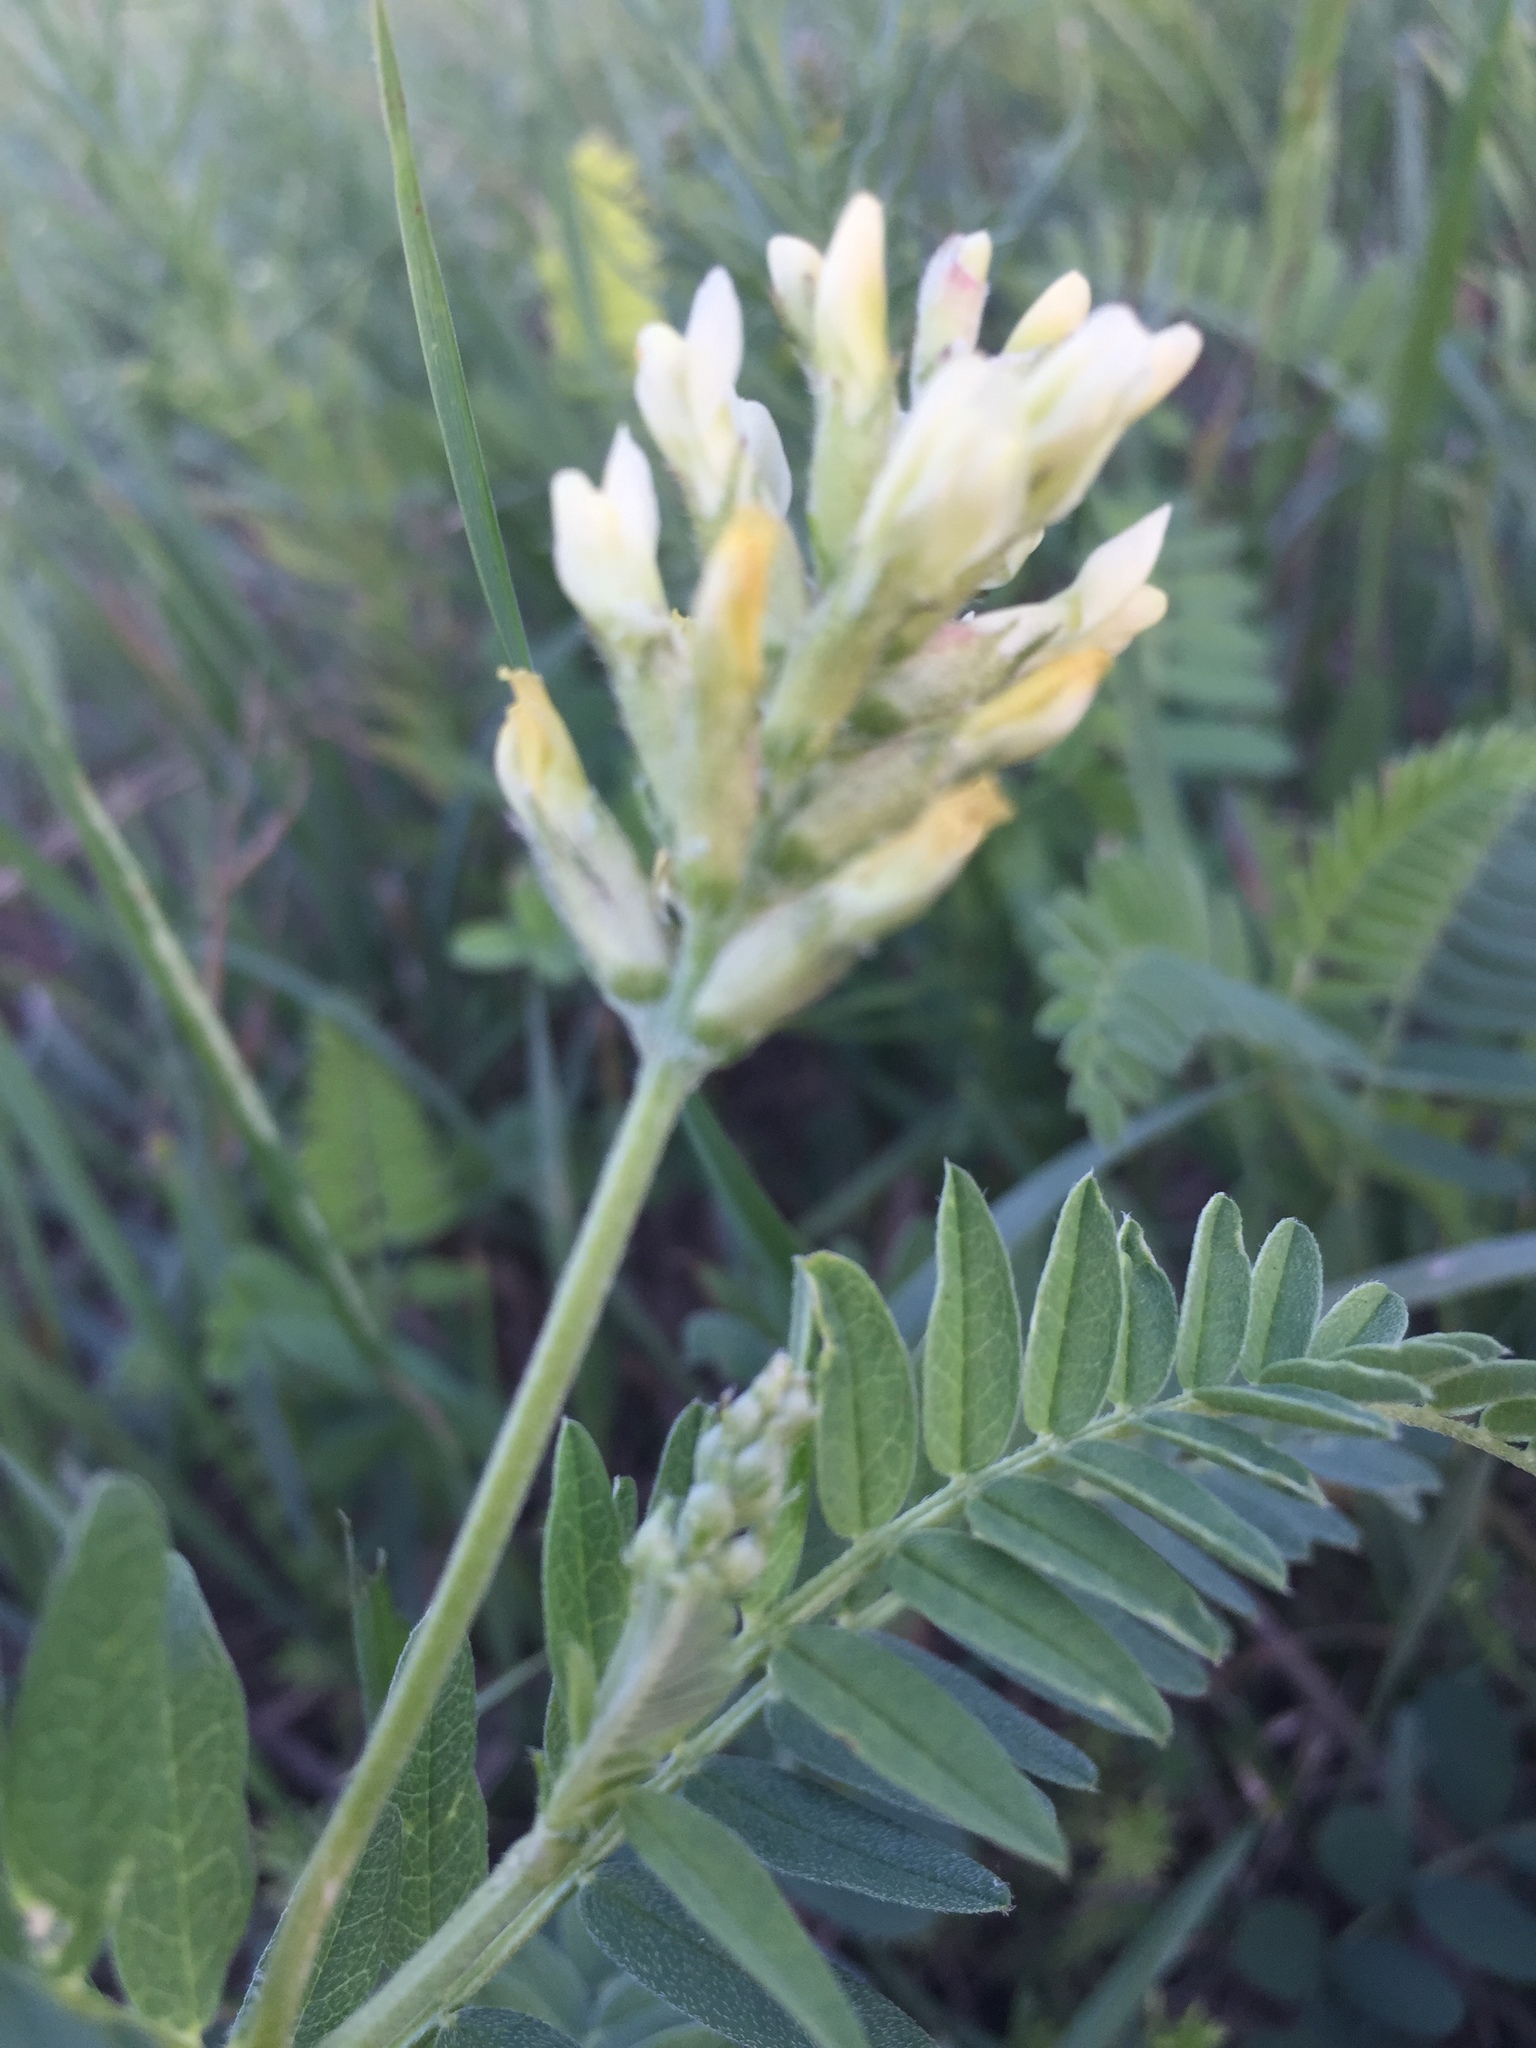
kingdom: Plantae
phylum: Tracheophyta
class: Magnoliopsida
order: Fabales
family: Fabaceae
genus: Astragalus
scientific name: Astragalus cicer
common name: Chick-pea milk-vetch
